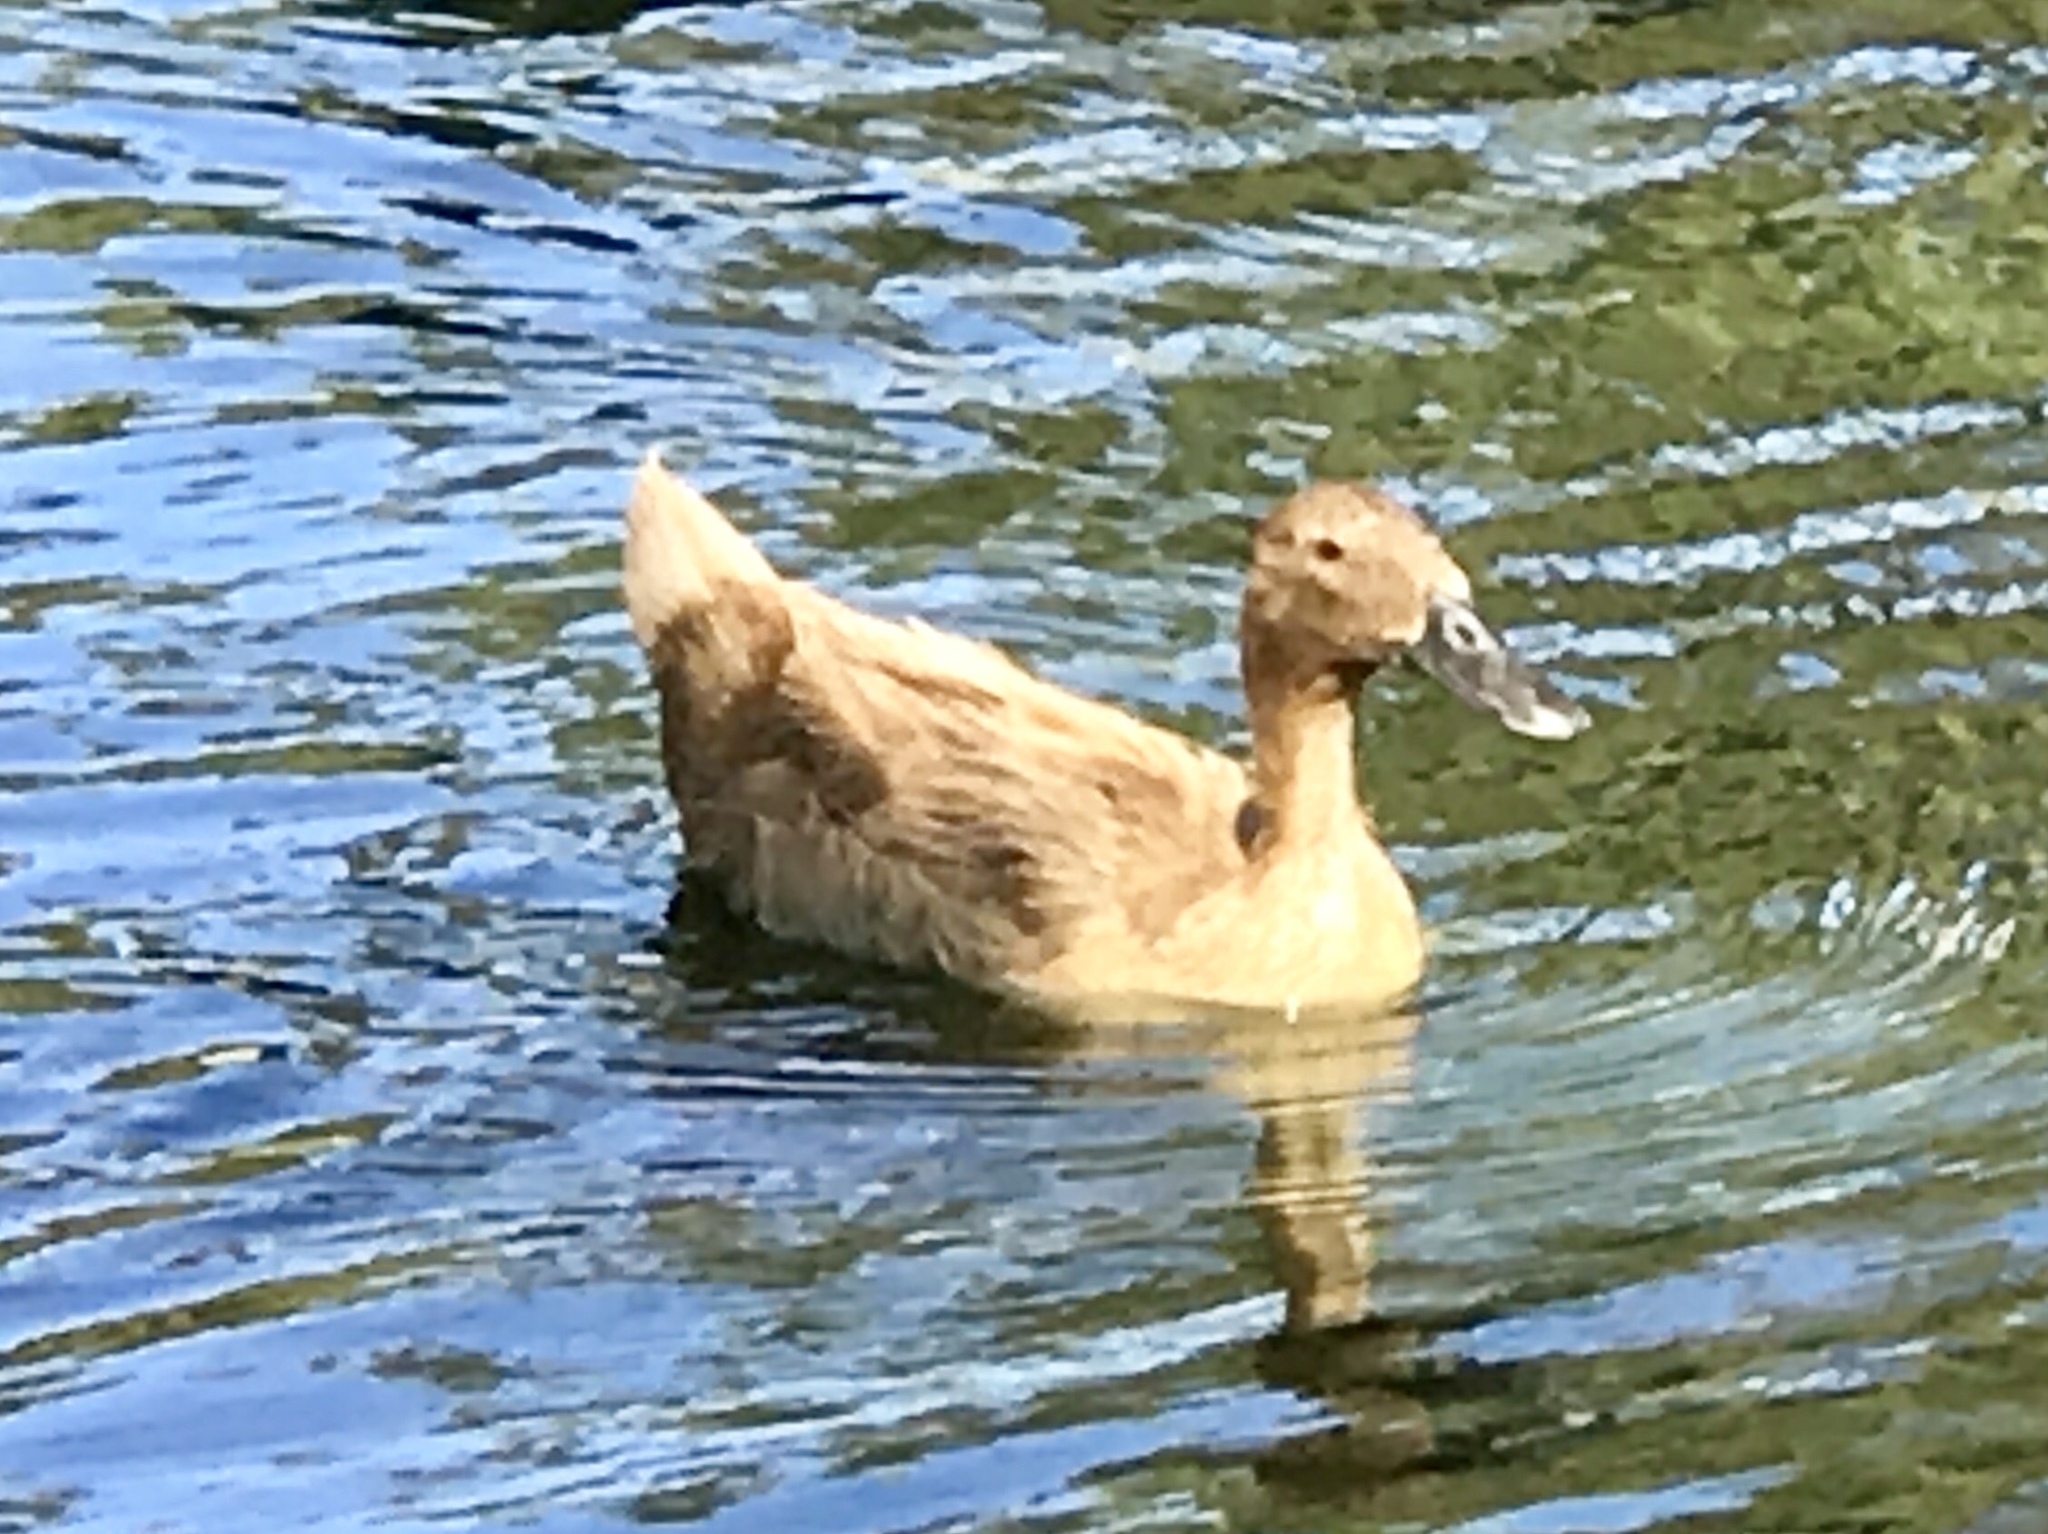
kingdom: Animalia
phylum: Chordata
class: Aves
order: Anseriformes
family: Anatidae
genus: Anas
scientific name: Anas platyrhynchos
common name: Mallard
